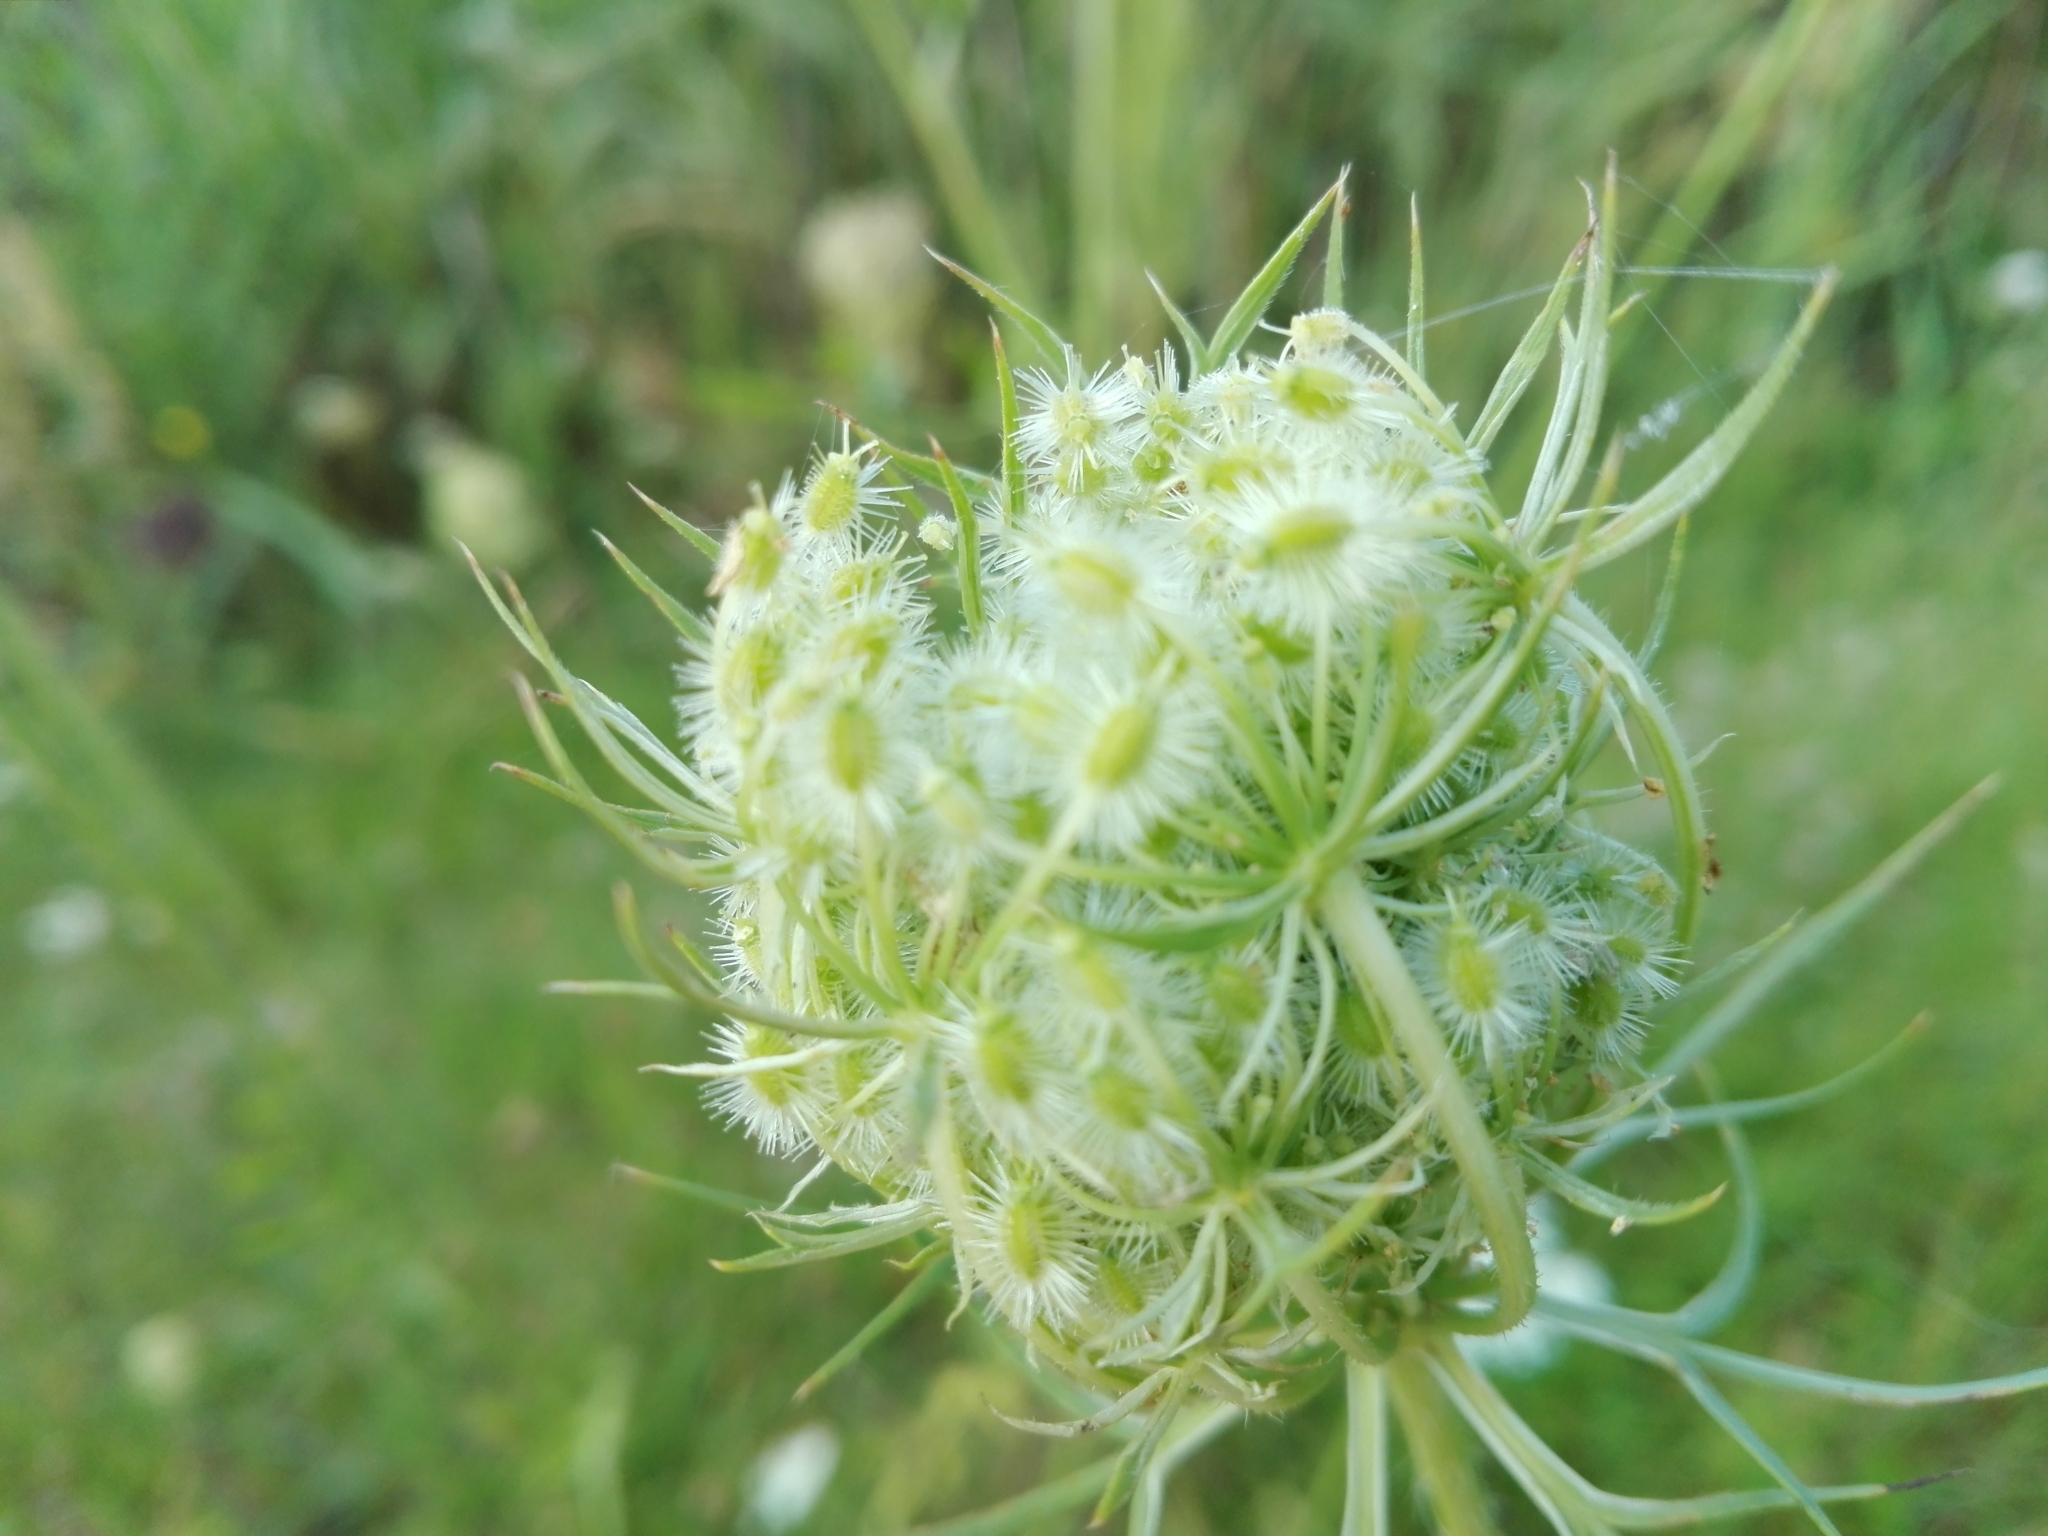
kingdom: Plantae
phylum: Tracheophyta
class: Magnoliopsida
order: Apiales
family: Apiaceae
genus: Daucus
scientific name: Daucus carota
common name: Wild carrot
